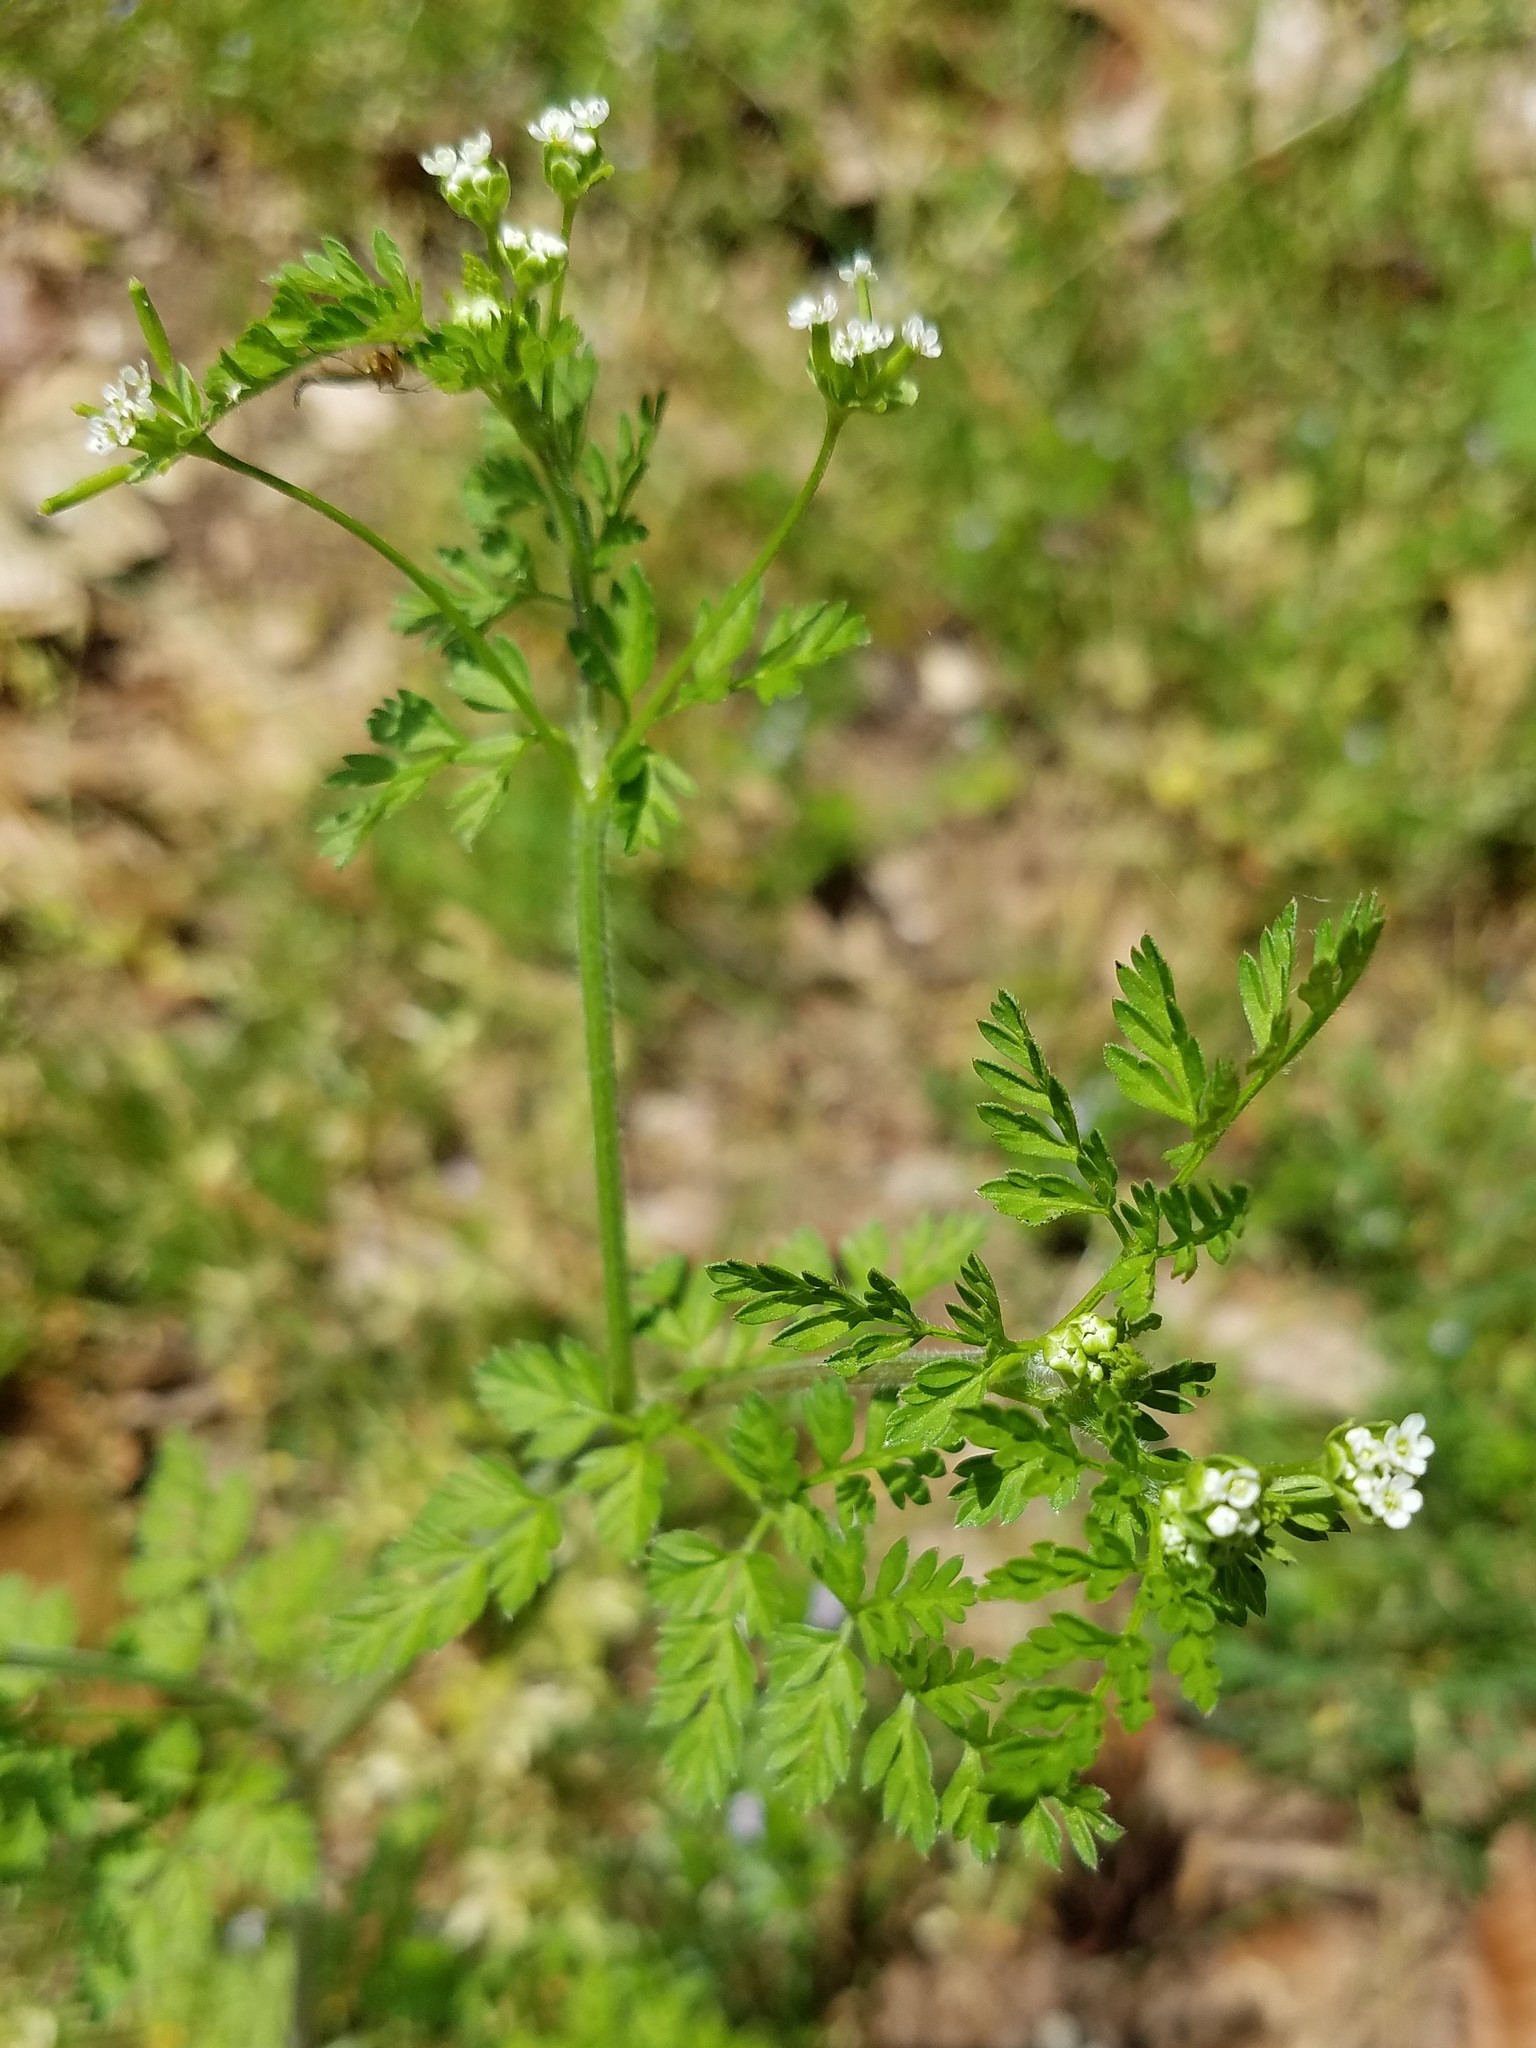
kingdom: Plantae
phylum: Tracheophyta
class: Magnoliopsida
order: Apiales
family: Apiaceae
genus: Chaerophyllum
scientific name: Chaerophyllum tainturieri
